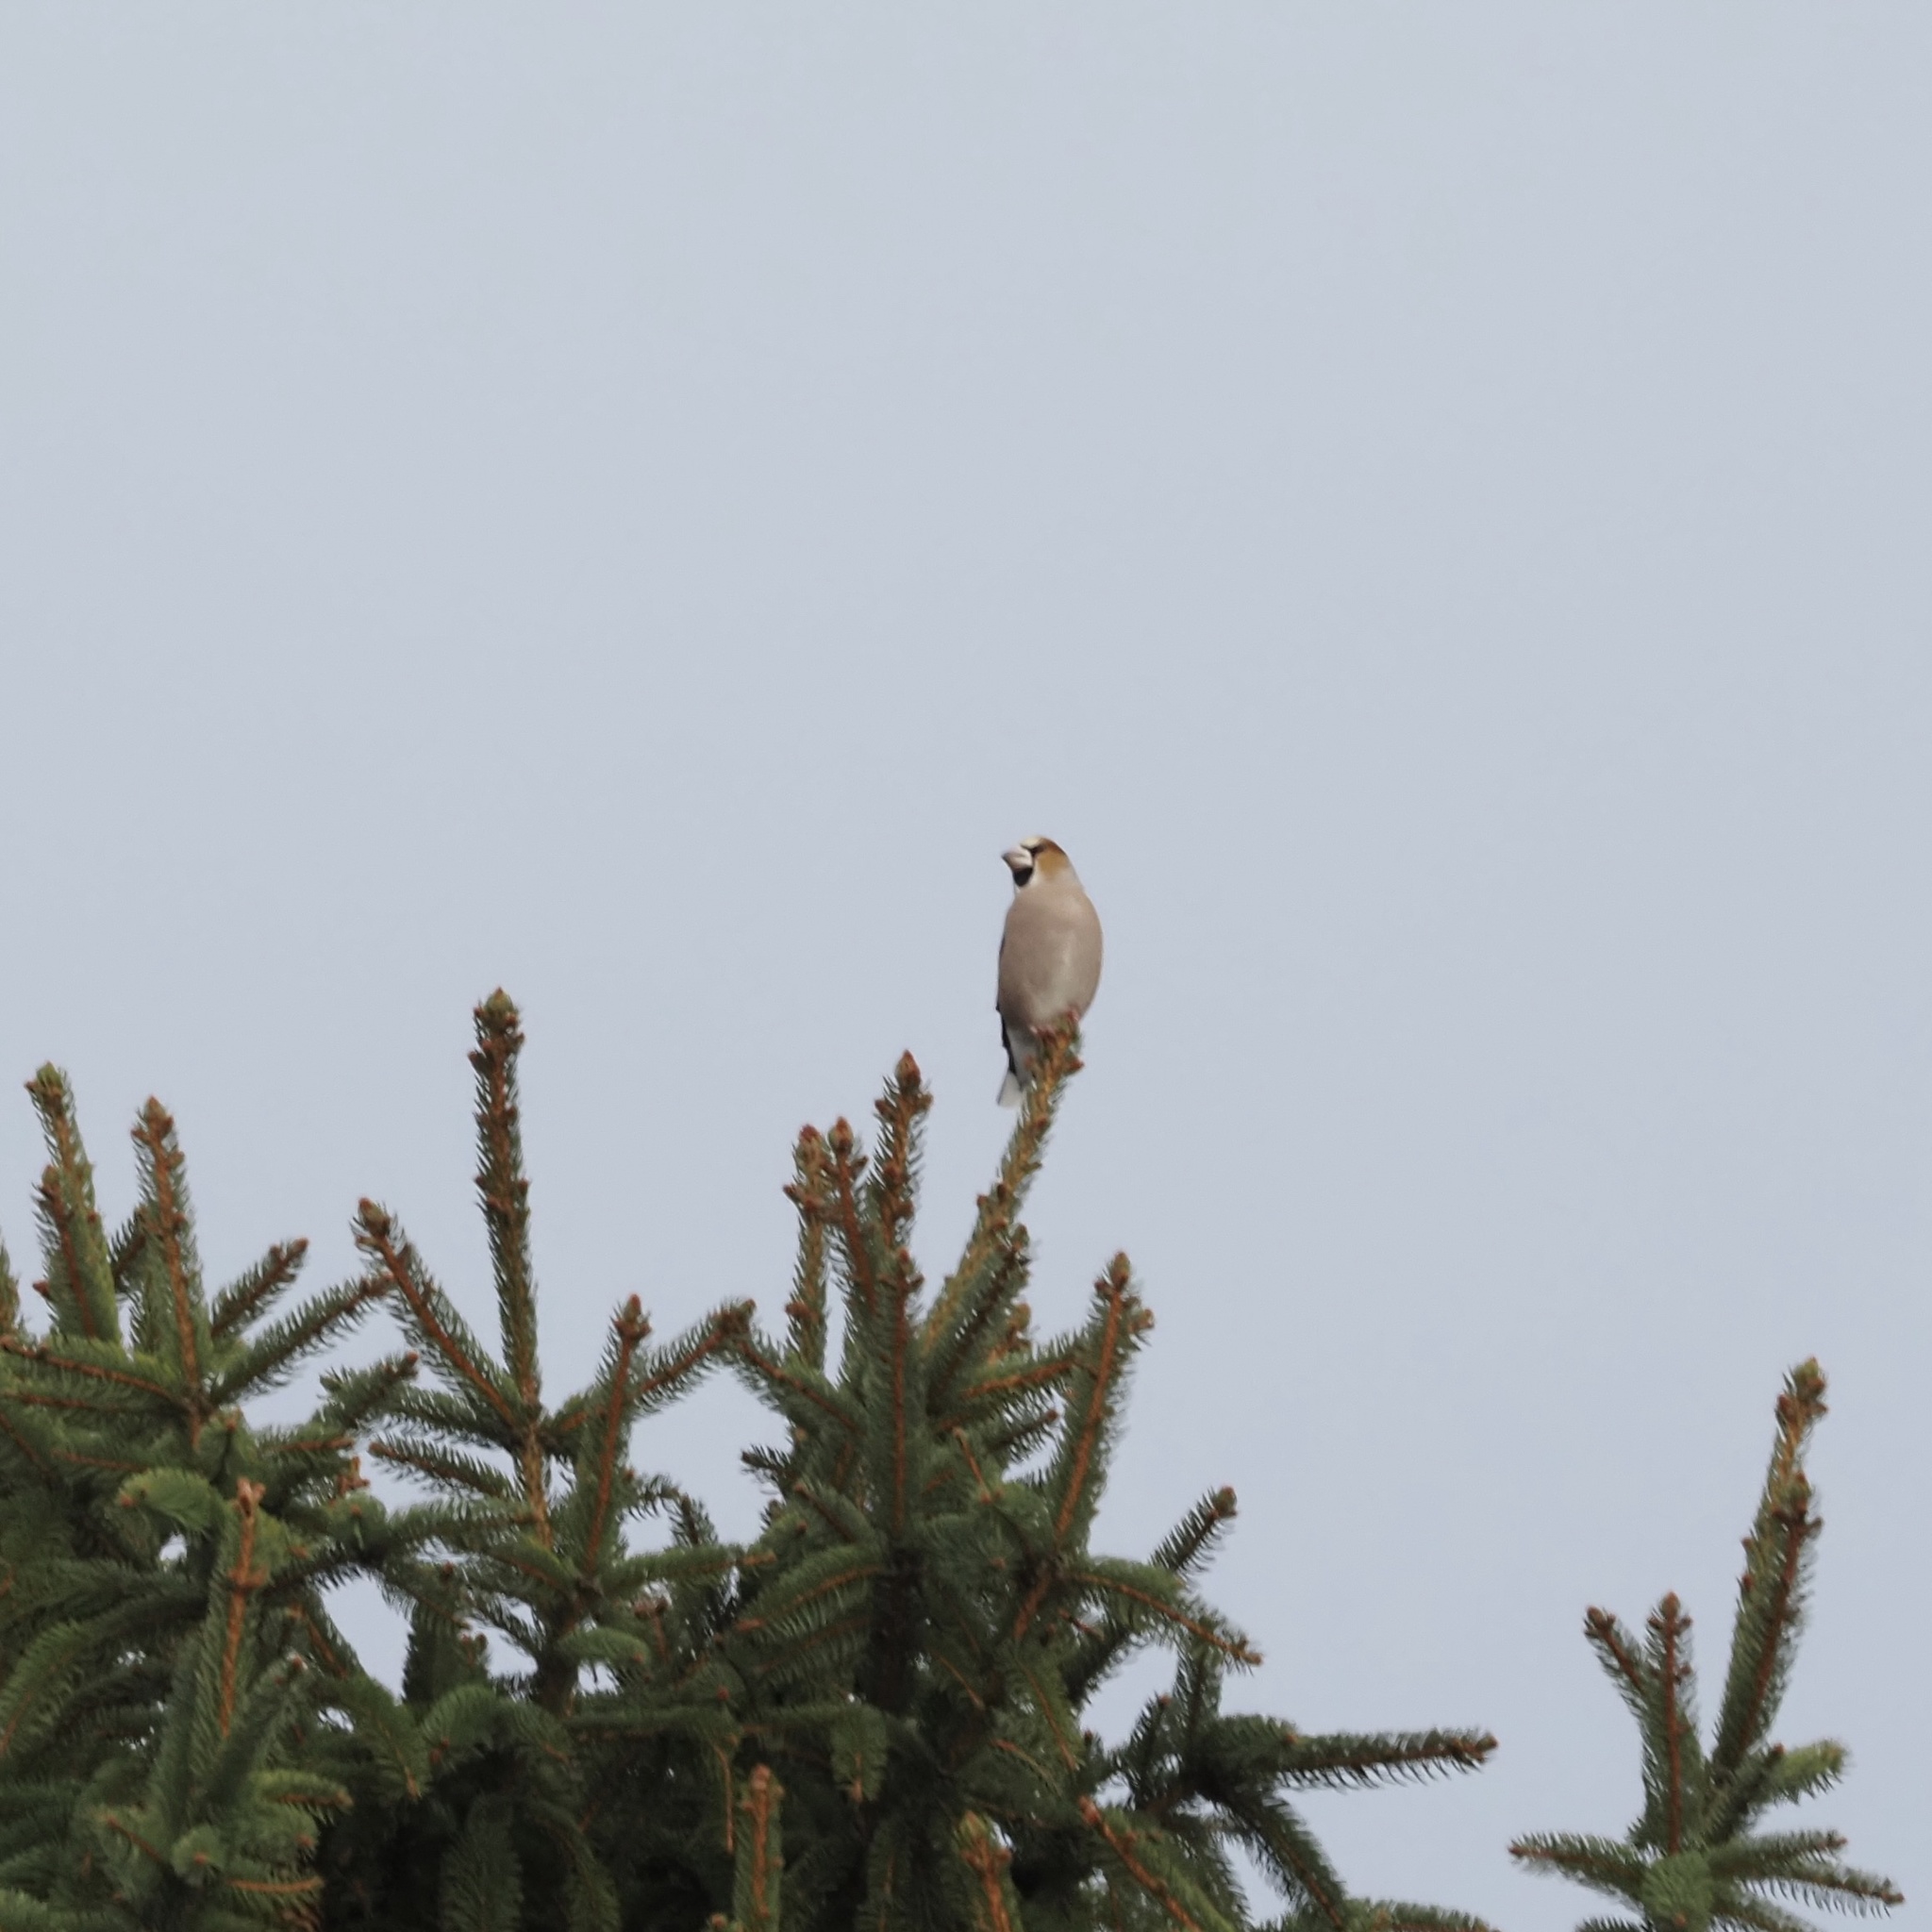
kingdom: Animalia
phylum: Chordata
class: Aves
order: Passeriformes
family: Fringillidae
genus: Coccothraustes
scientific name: Coccothraustes coccothraustes
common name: Hawfinch
